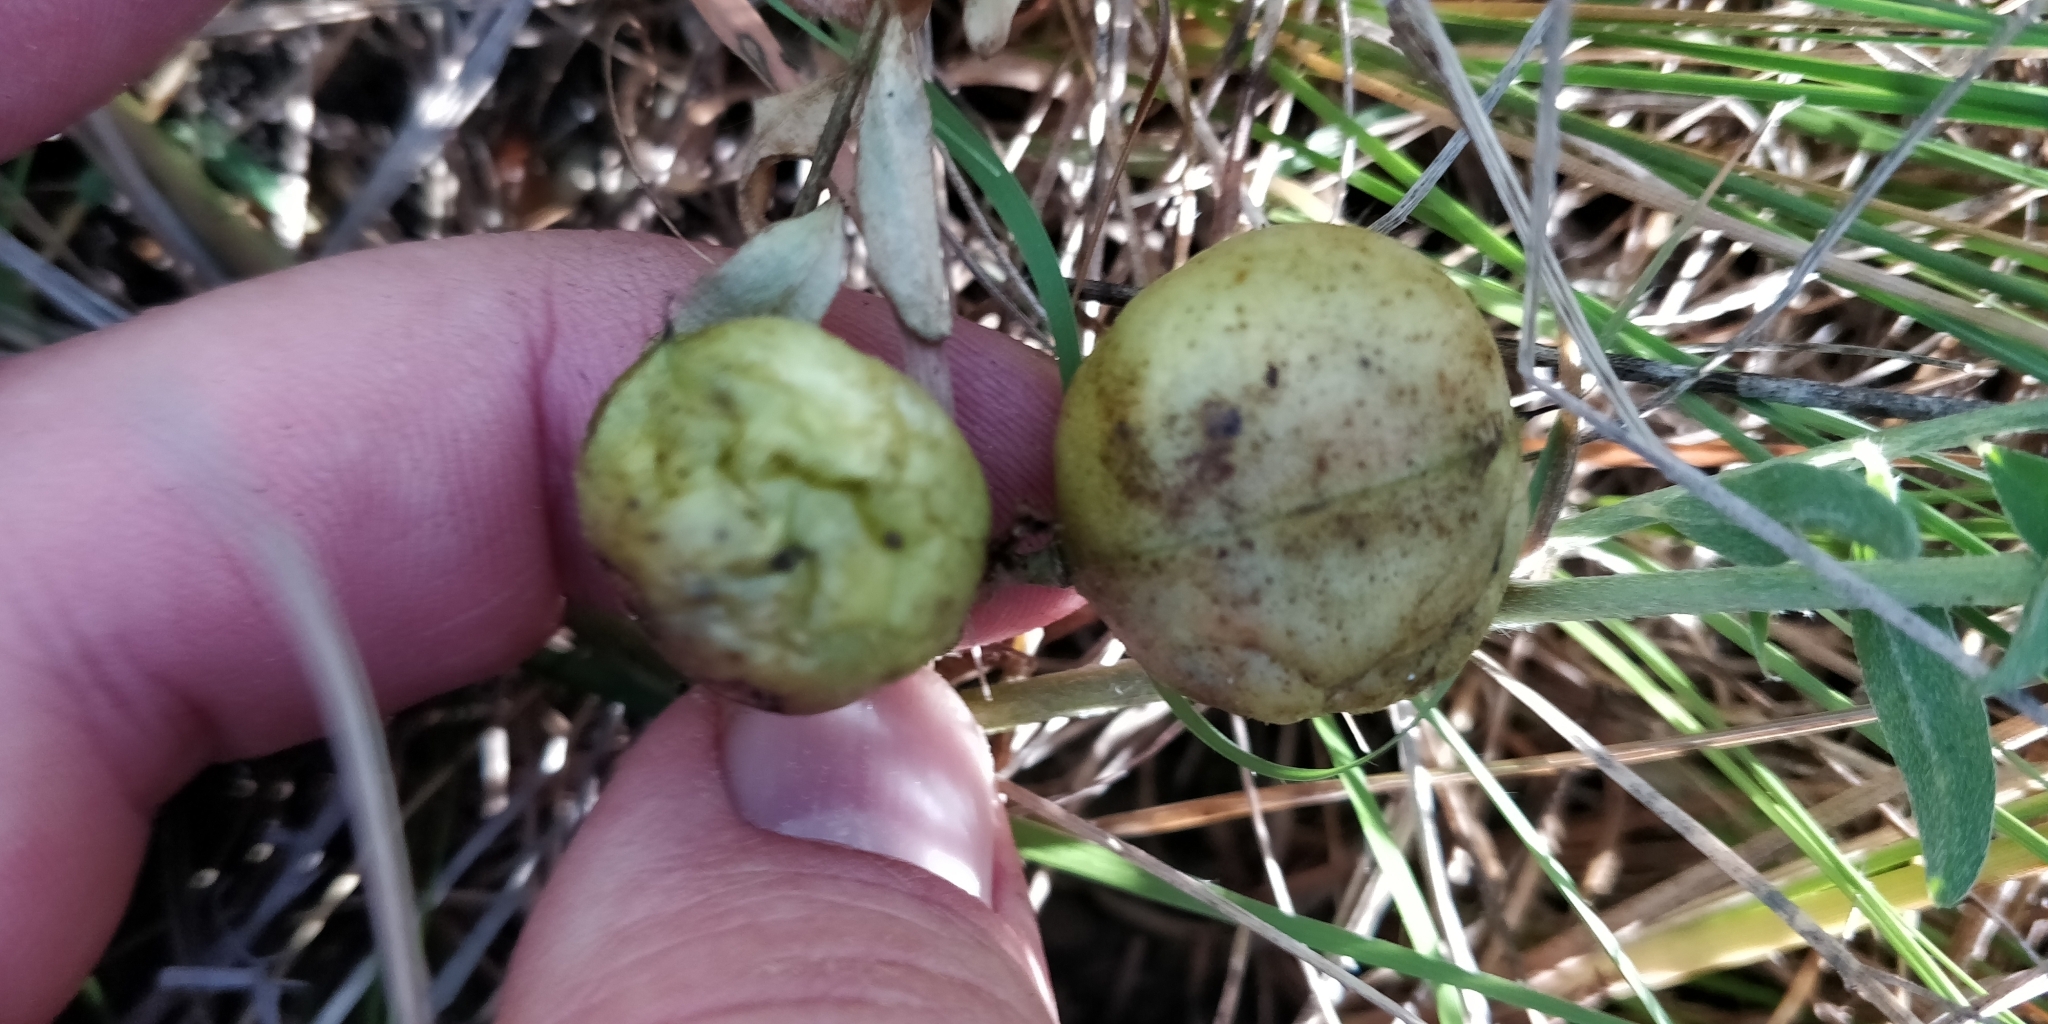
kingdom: Plantae
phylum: Tracheophyta
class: Magnoliopsida
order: Fabales
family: Fabaceae
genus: Astragalus
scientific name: Astragalus crassicarpus
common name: Ground-plum milk-vetch
